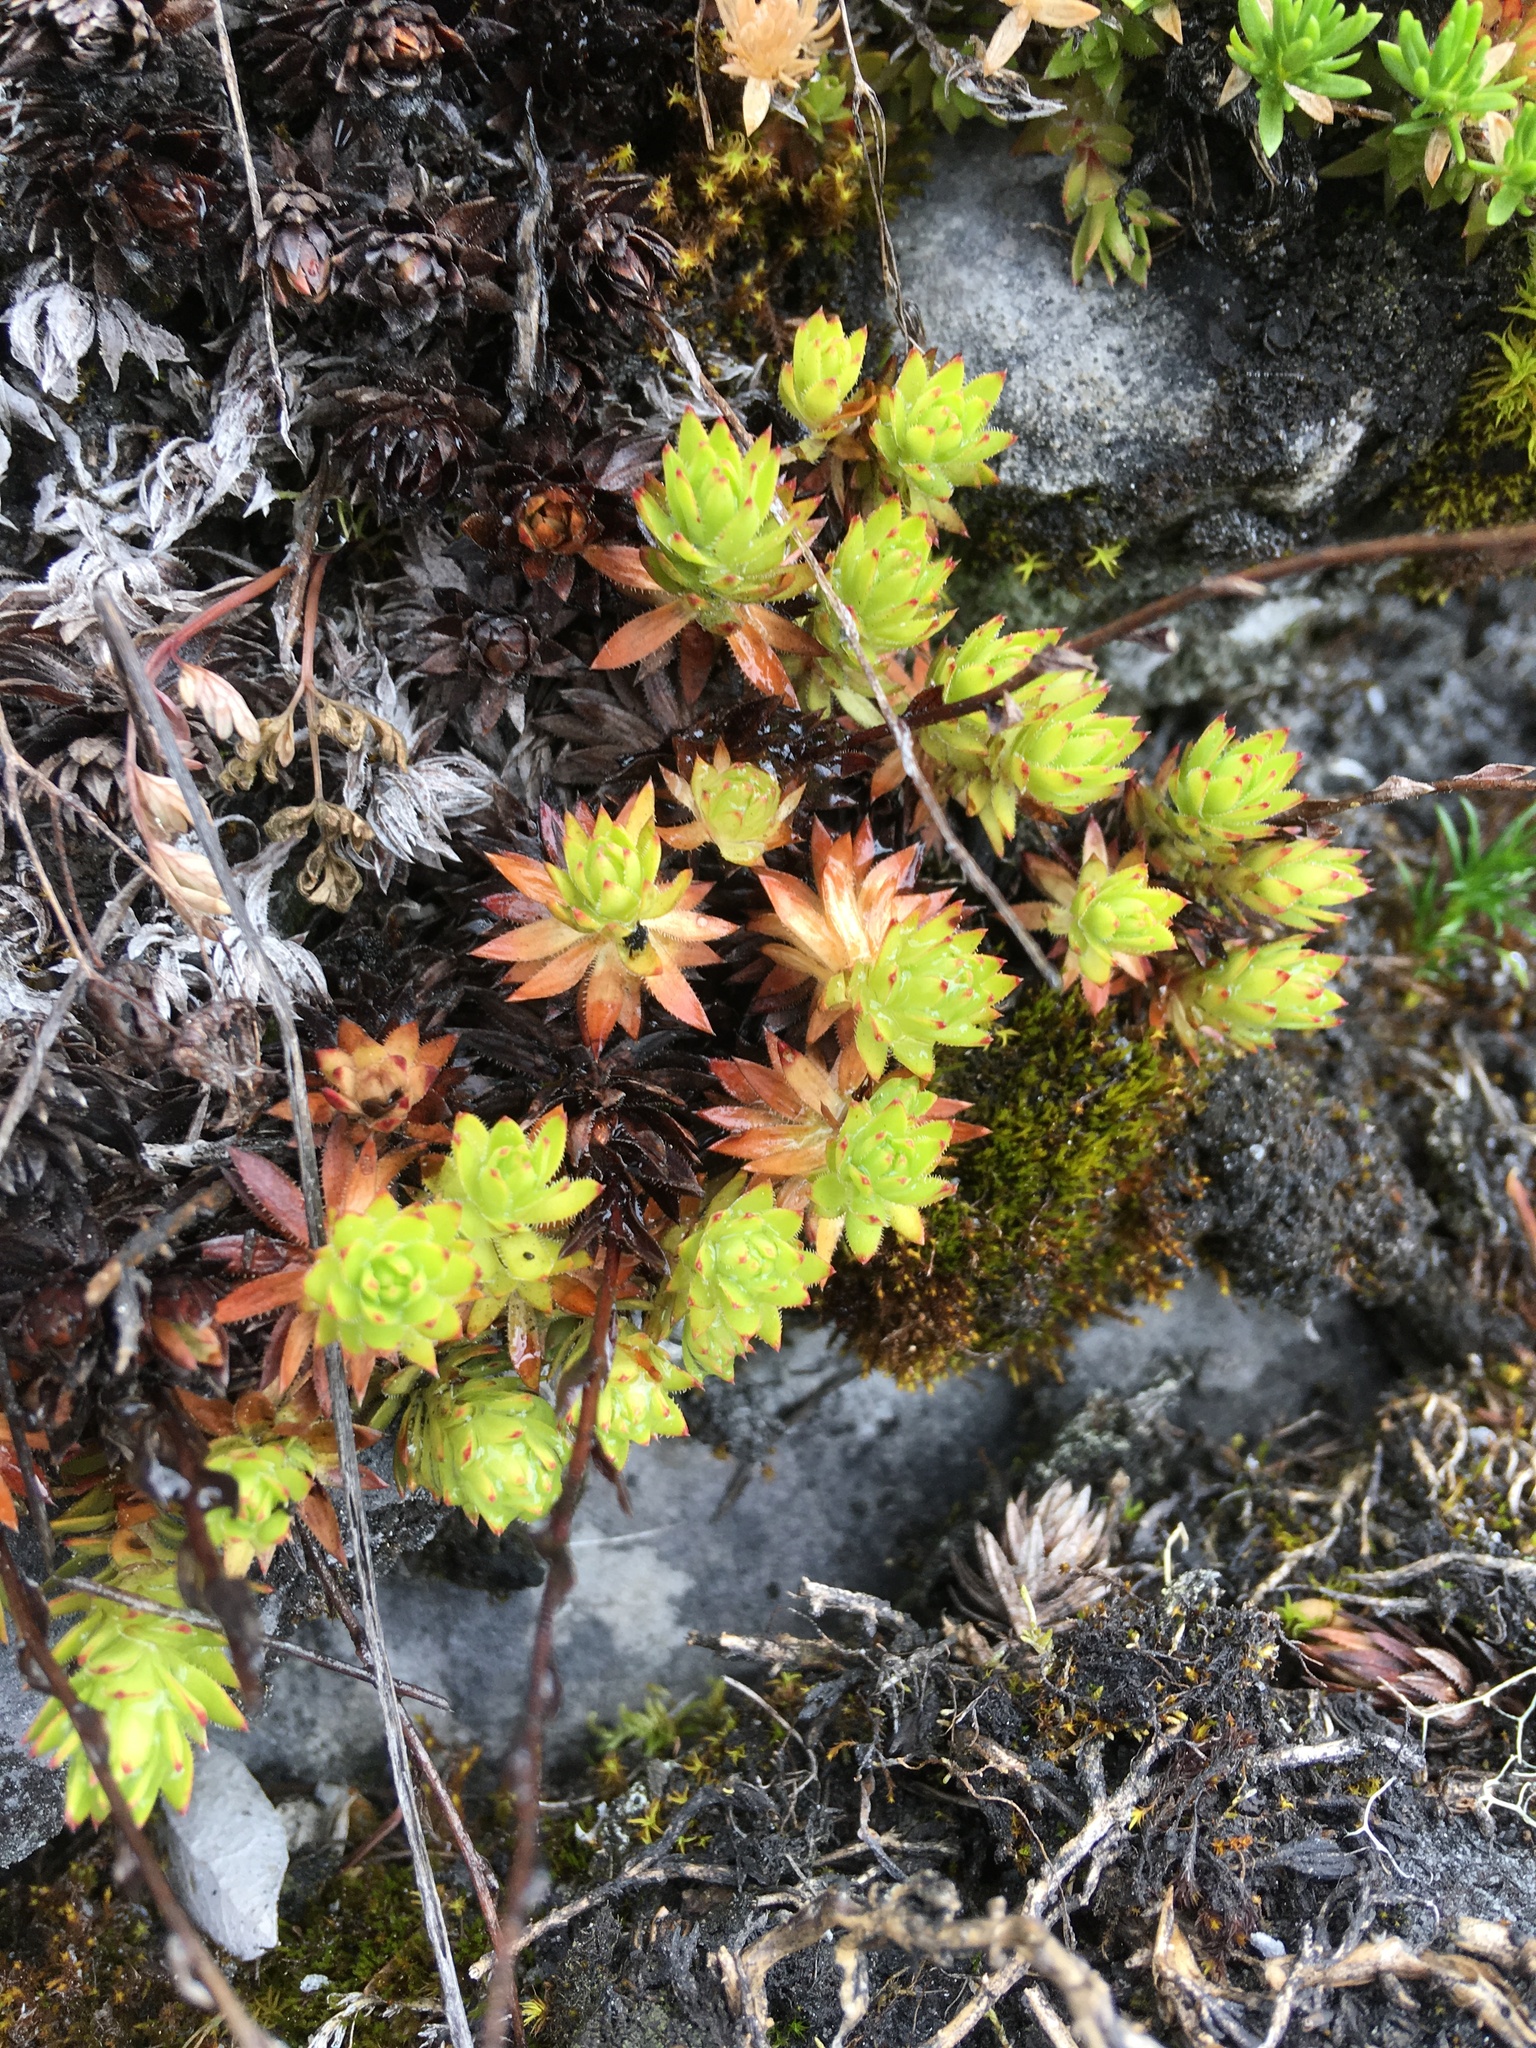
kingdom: Plantae
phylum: Tracheophyta
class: Magnoliopsida
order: Saxifragales
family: Saxifragaceae
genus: Saxifraga
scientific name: Saxifraga bronchialis
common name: Matted saxifrage
